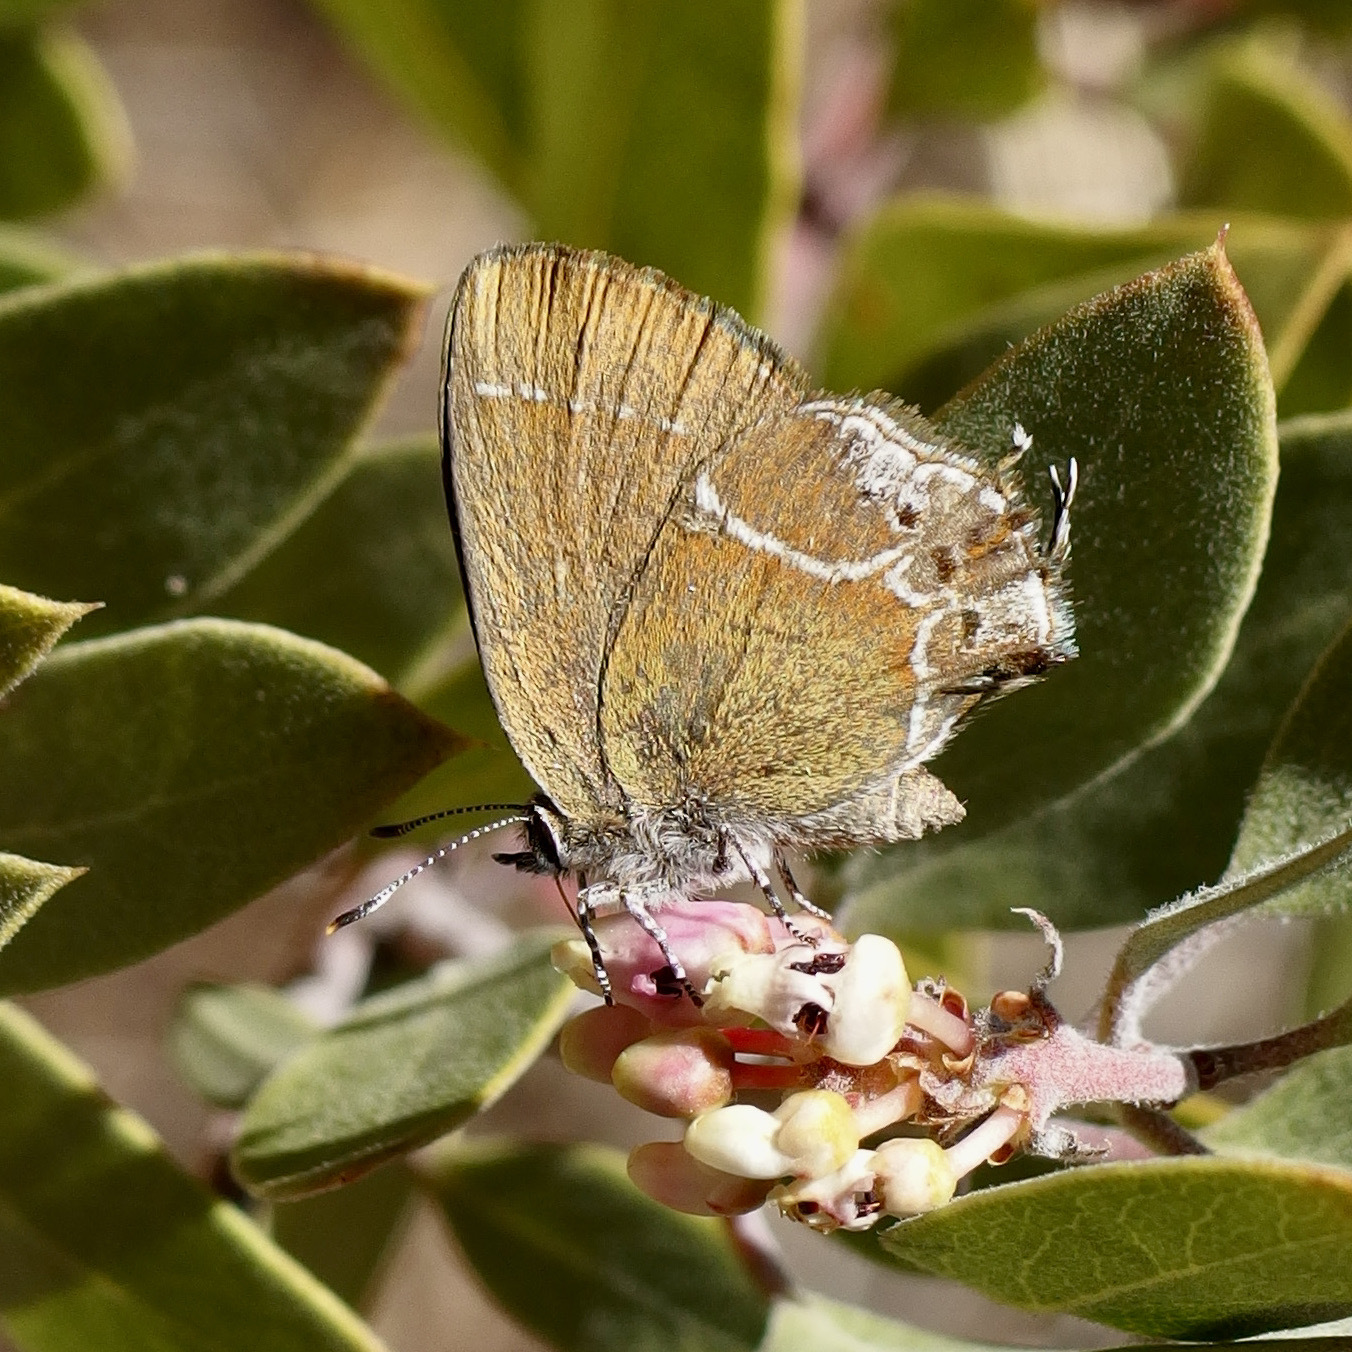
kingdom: Animalia
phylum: Arthropoda
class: Insecta
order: Lepidoptera
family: Lycaenidae
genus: Xamia
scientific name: Xamia xami
